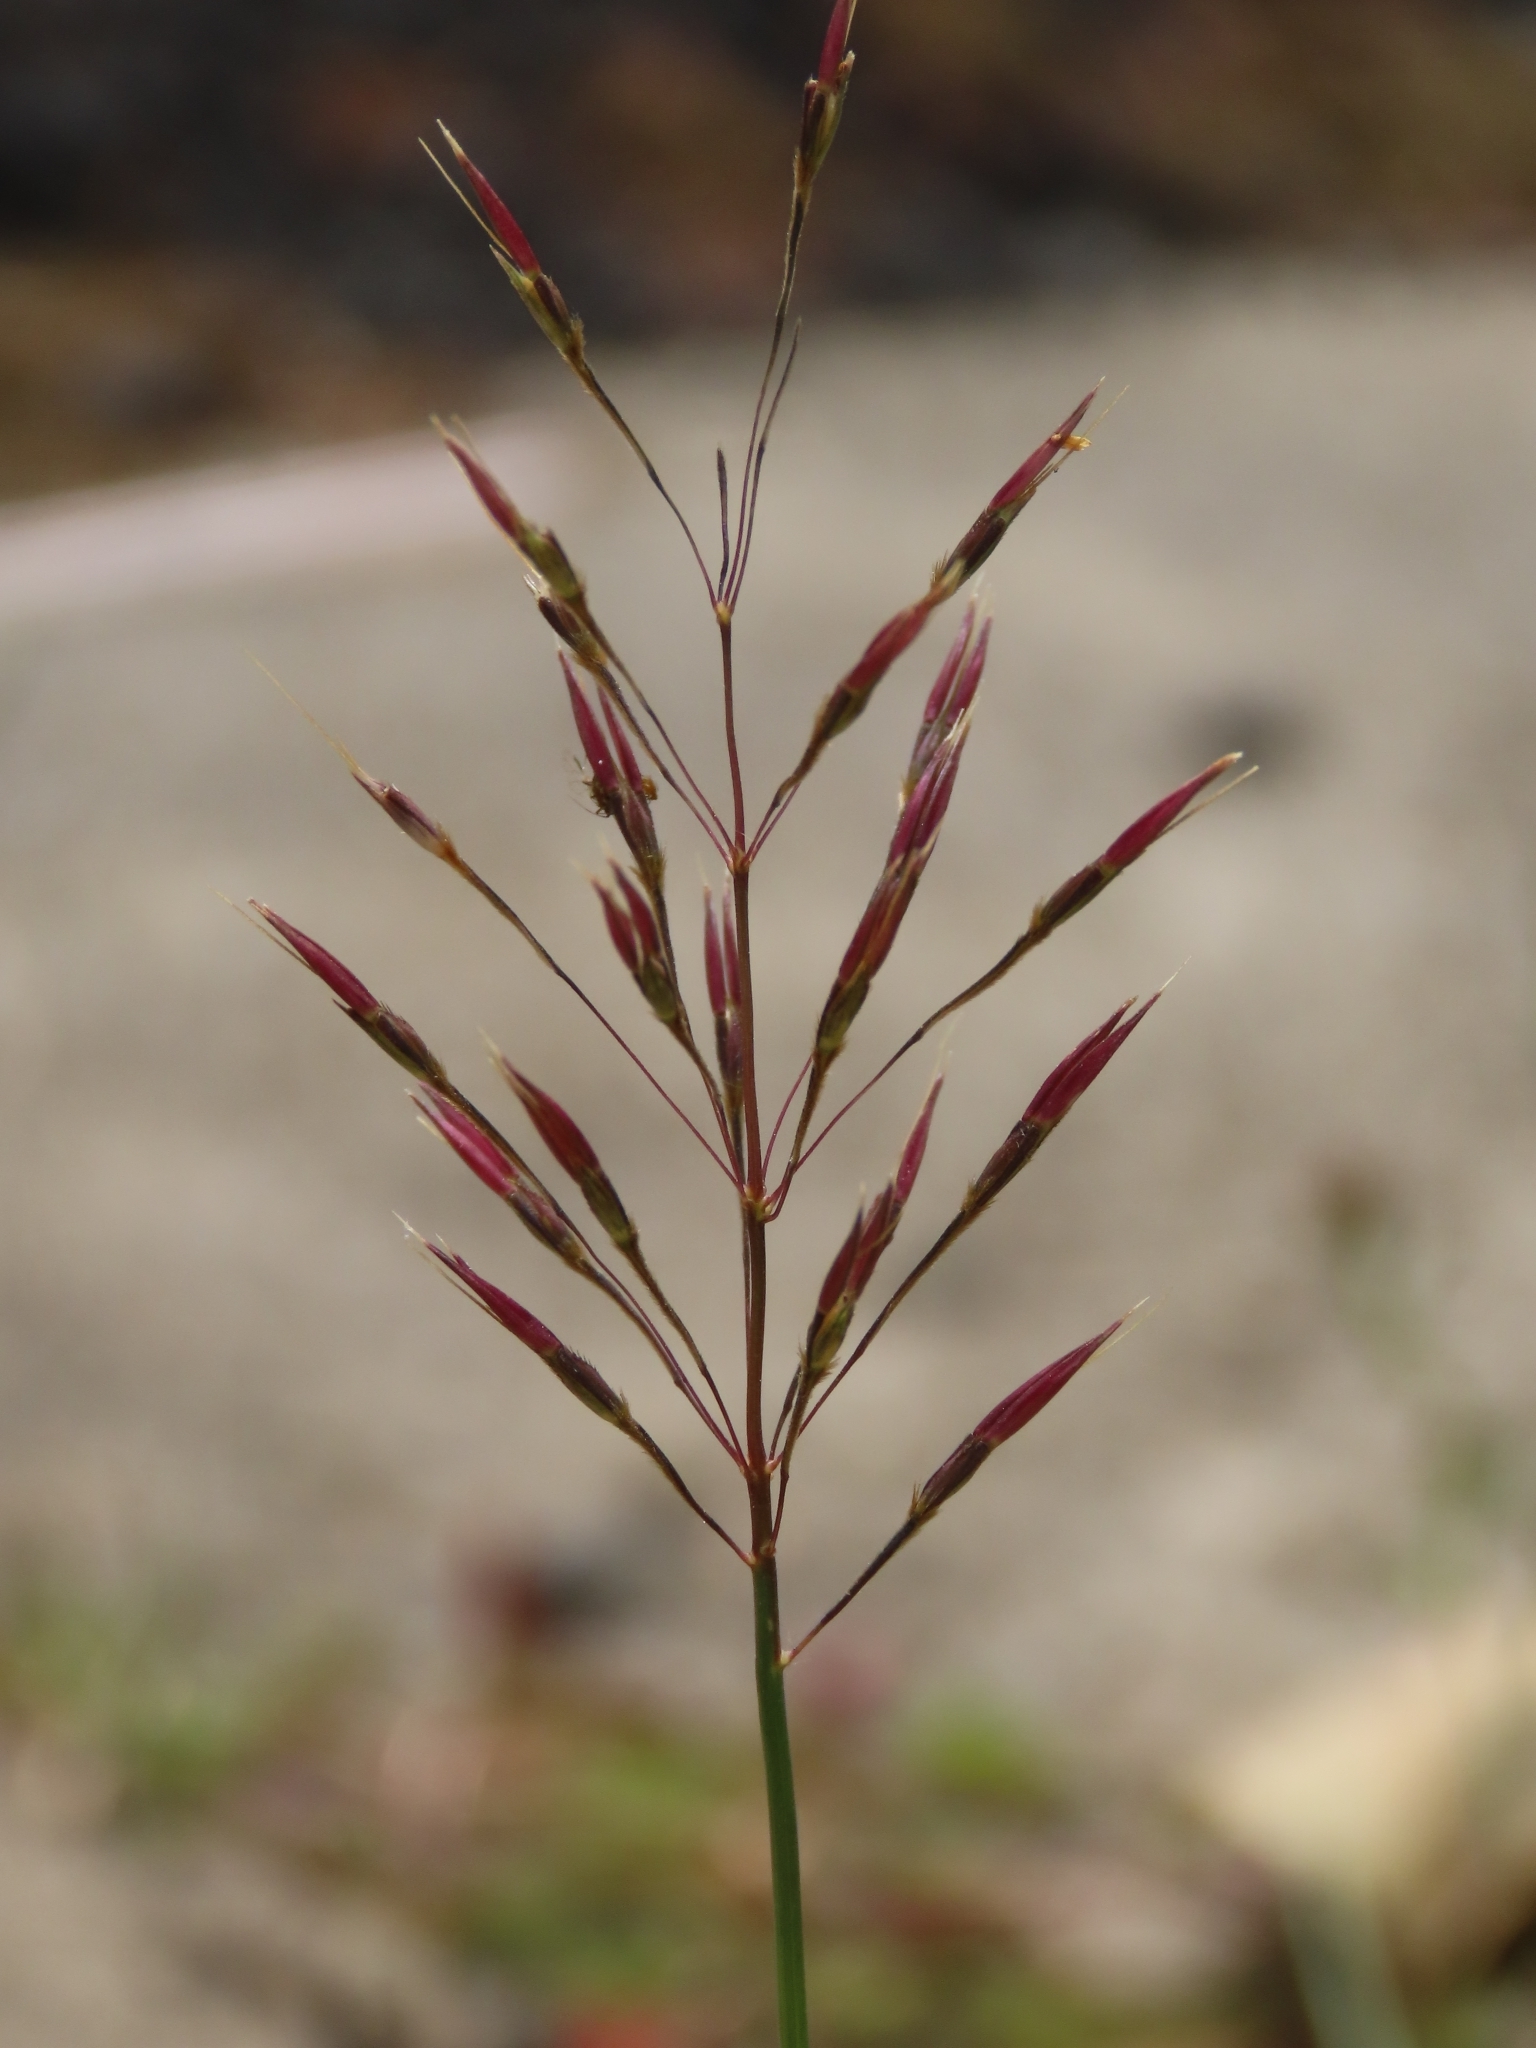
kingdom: Plantae
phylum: Tracheophyta
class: Liliopsida
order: Poales
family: Poaceae
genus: Chrysopogon
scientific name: Chrysopogon aciculatus
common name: Pilipiliula
